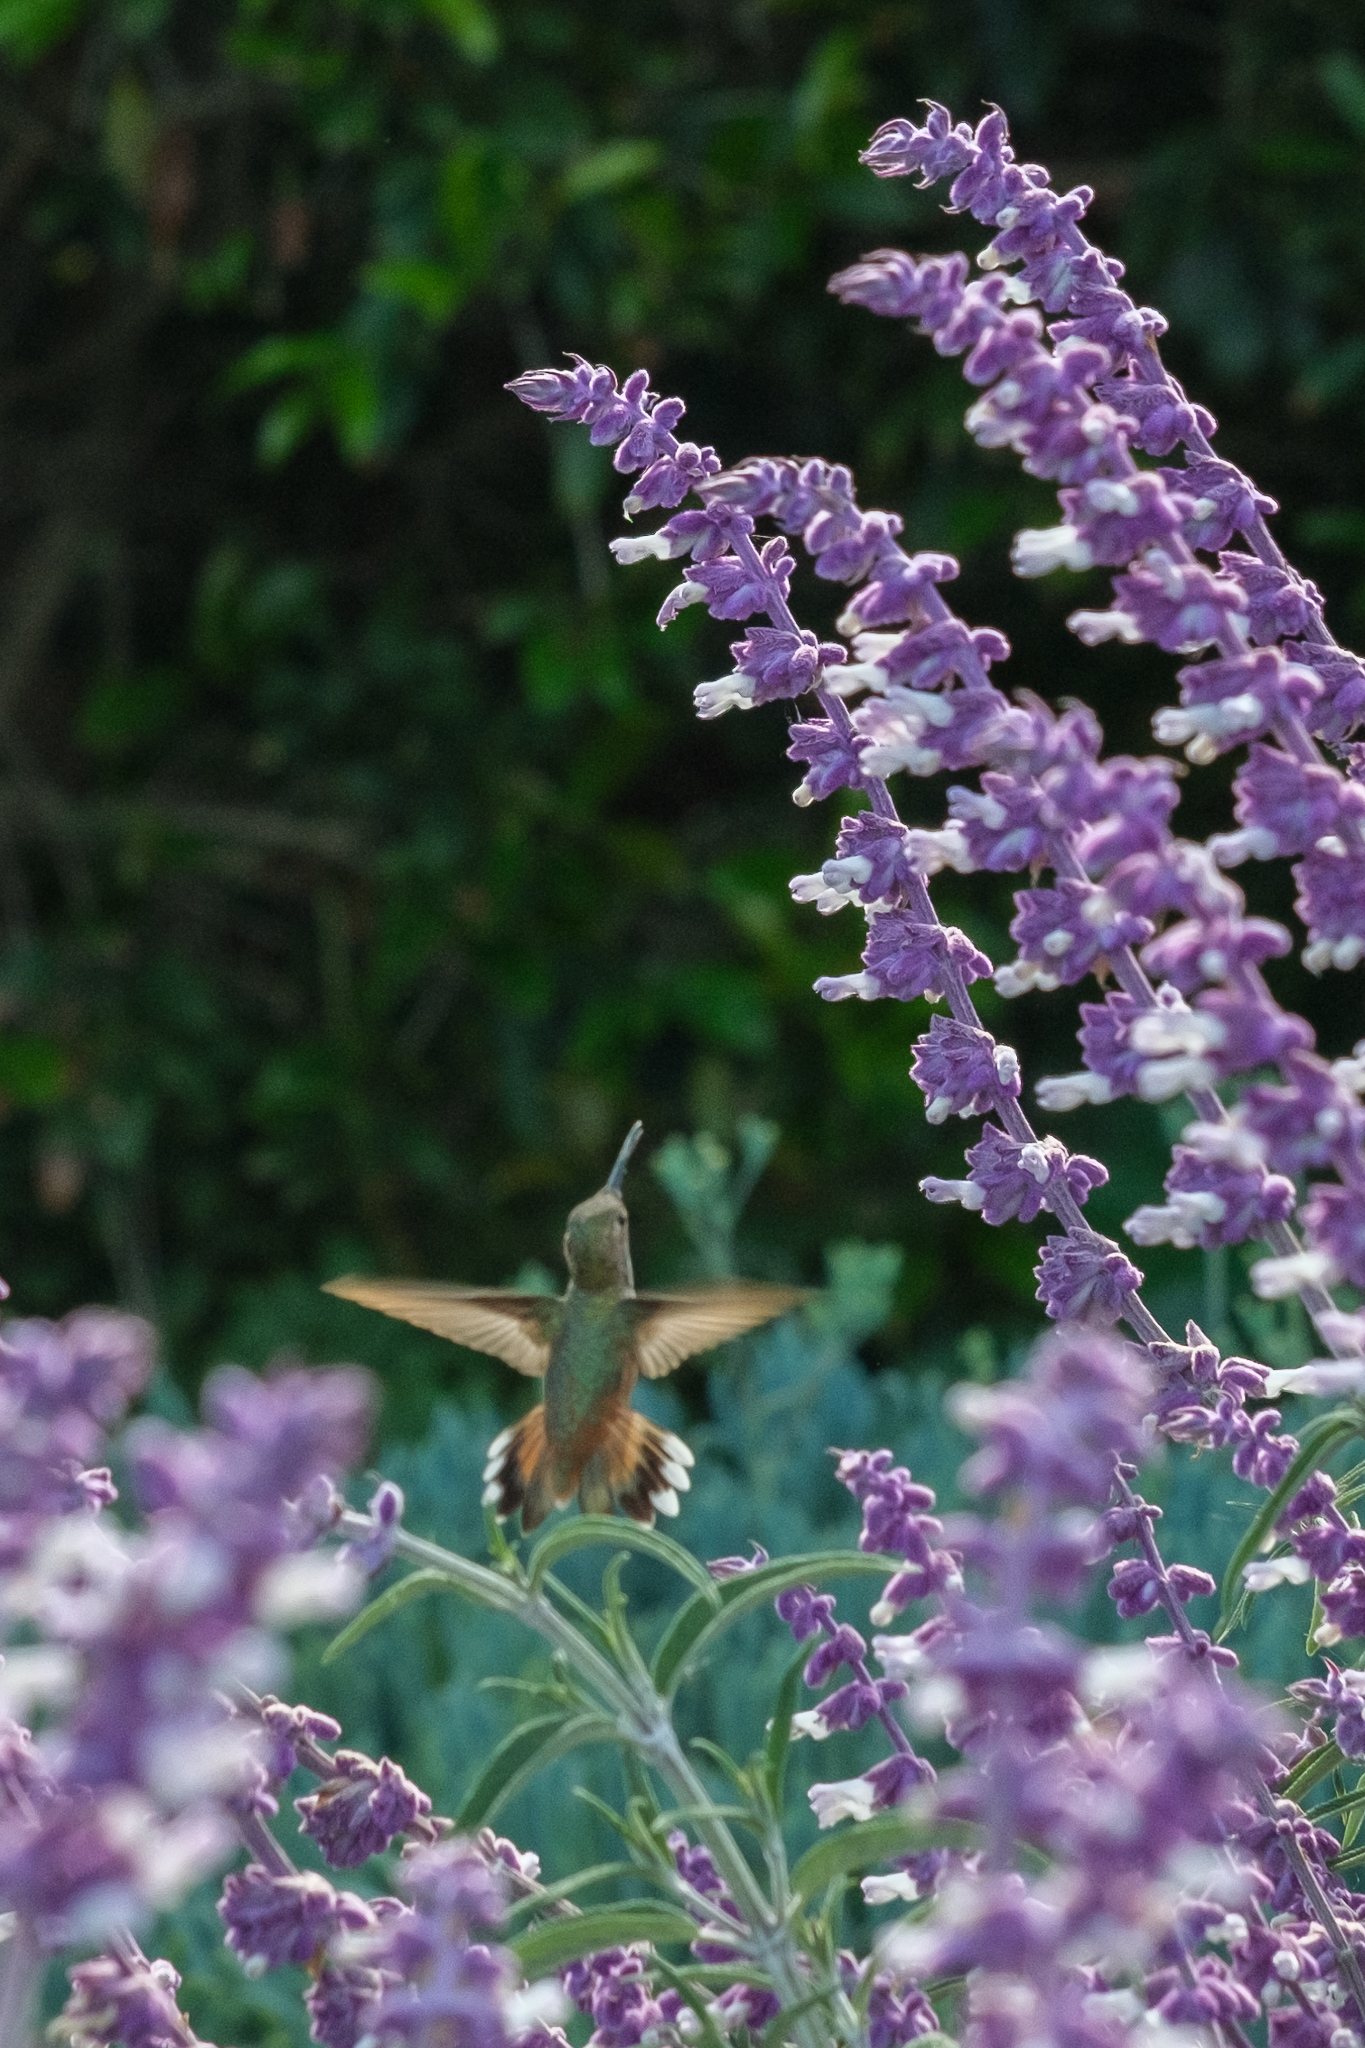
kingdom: Animalia
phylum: Chordata
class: Aves
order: Apodiformes
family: Trochilidae
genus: Selasphorus
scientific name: Selasphorus sasin
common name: Allen's hummingbird
